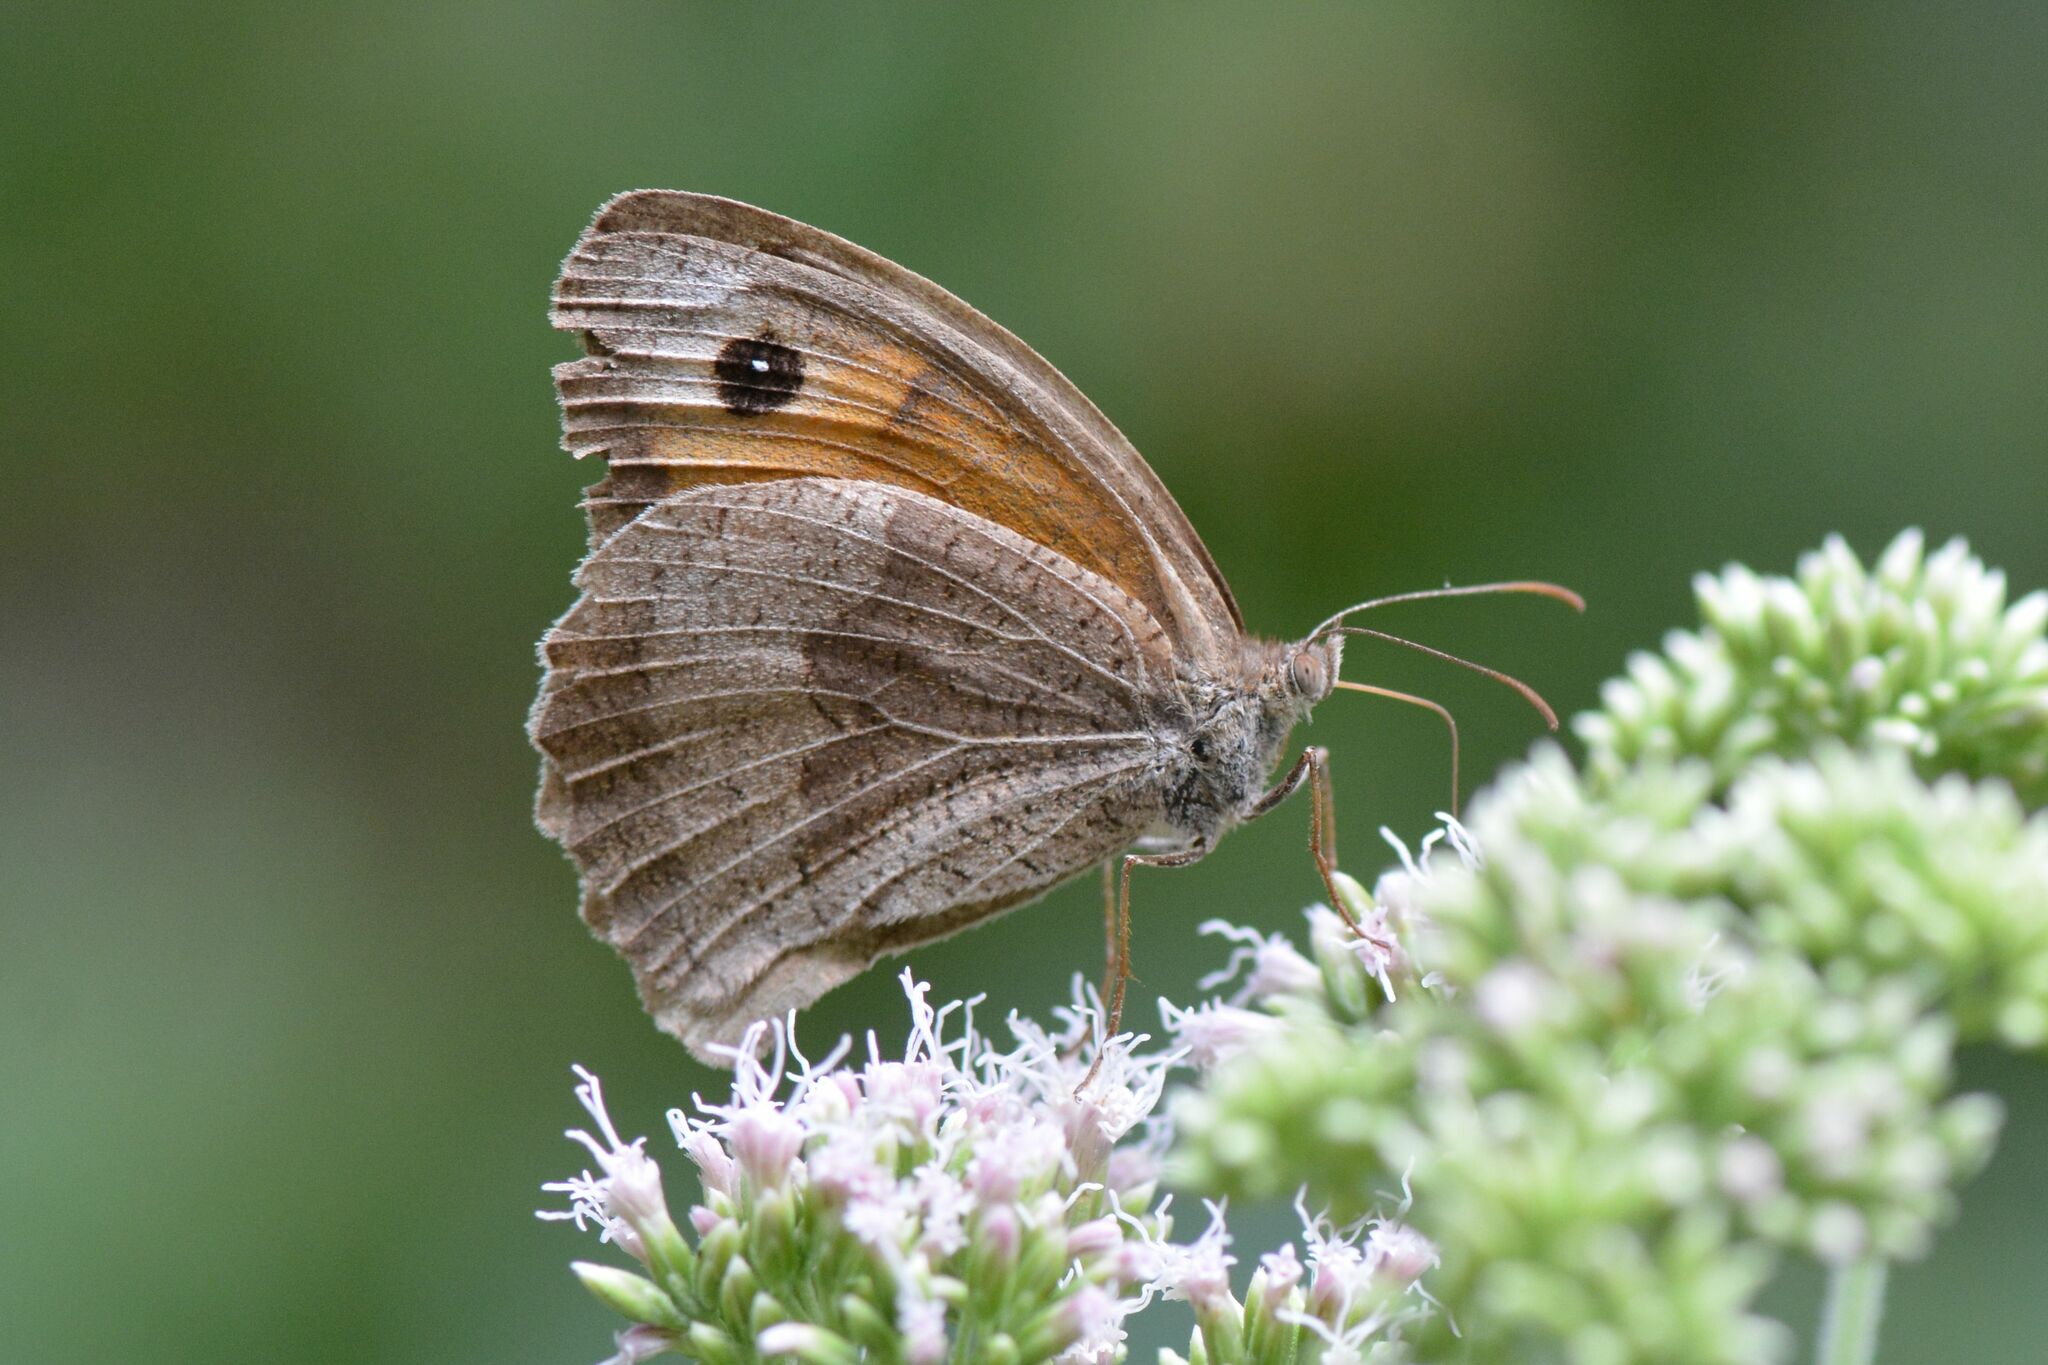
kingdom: Animalia
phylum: Arthropoda
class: Insecta
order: Lepidoptera
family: Nymphalidae
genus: Maniola
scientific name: Maniola jurtina
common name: Meadow brown
